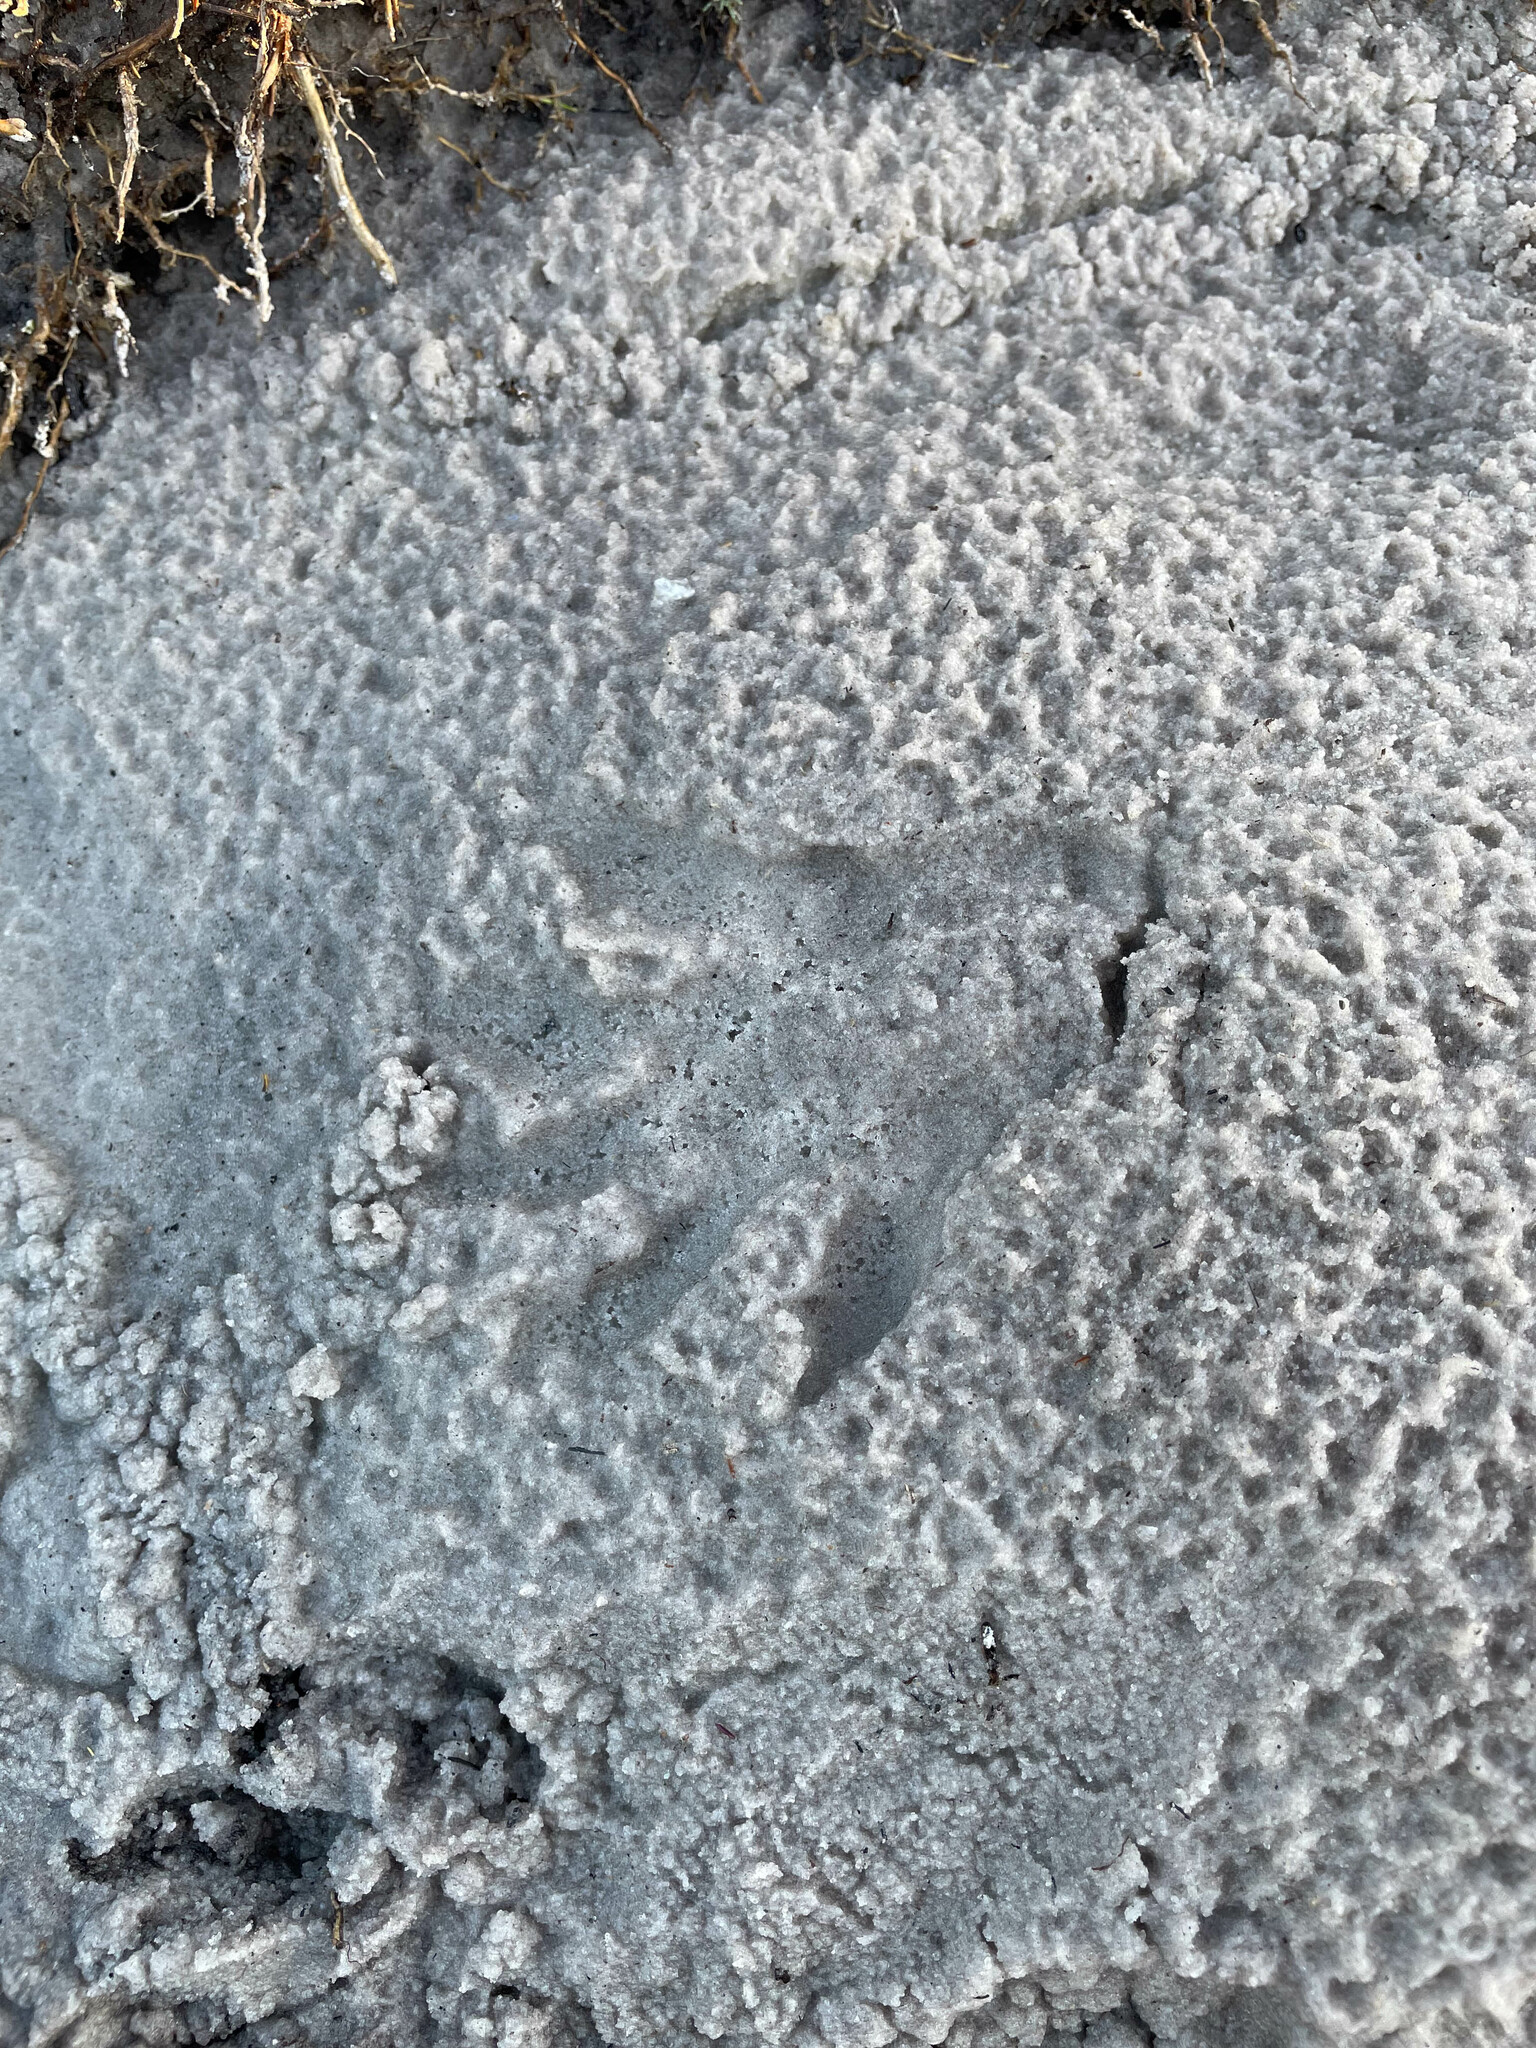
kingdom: Animalia
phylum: Chordata
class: Mammalia
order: Carnivora
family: Procyonidae
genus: Procyon
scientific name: Procyon cancrivorus
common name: Crab-eating raccoon
